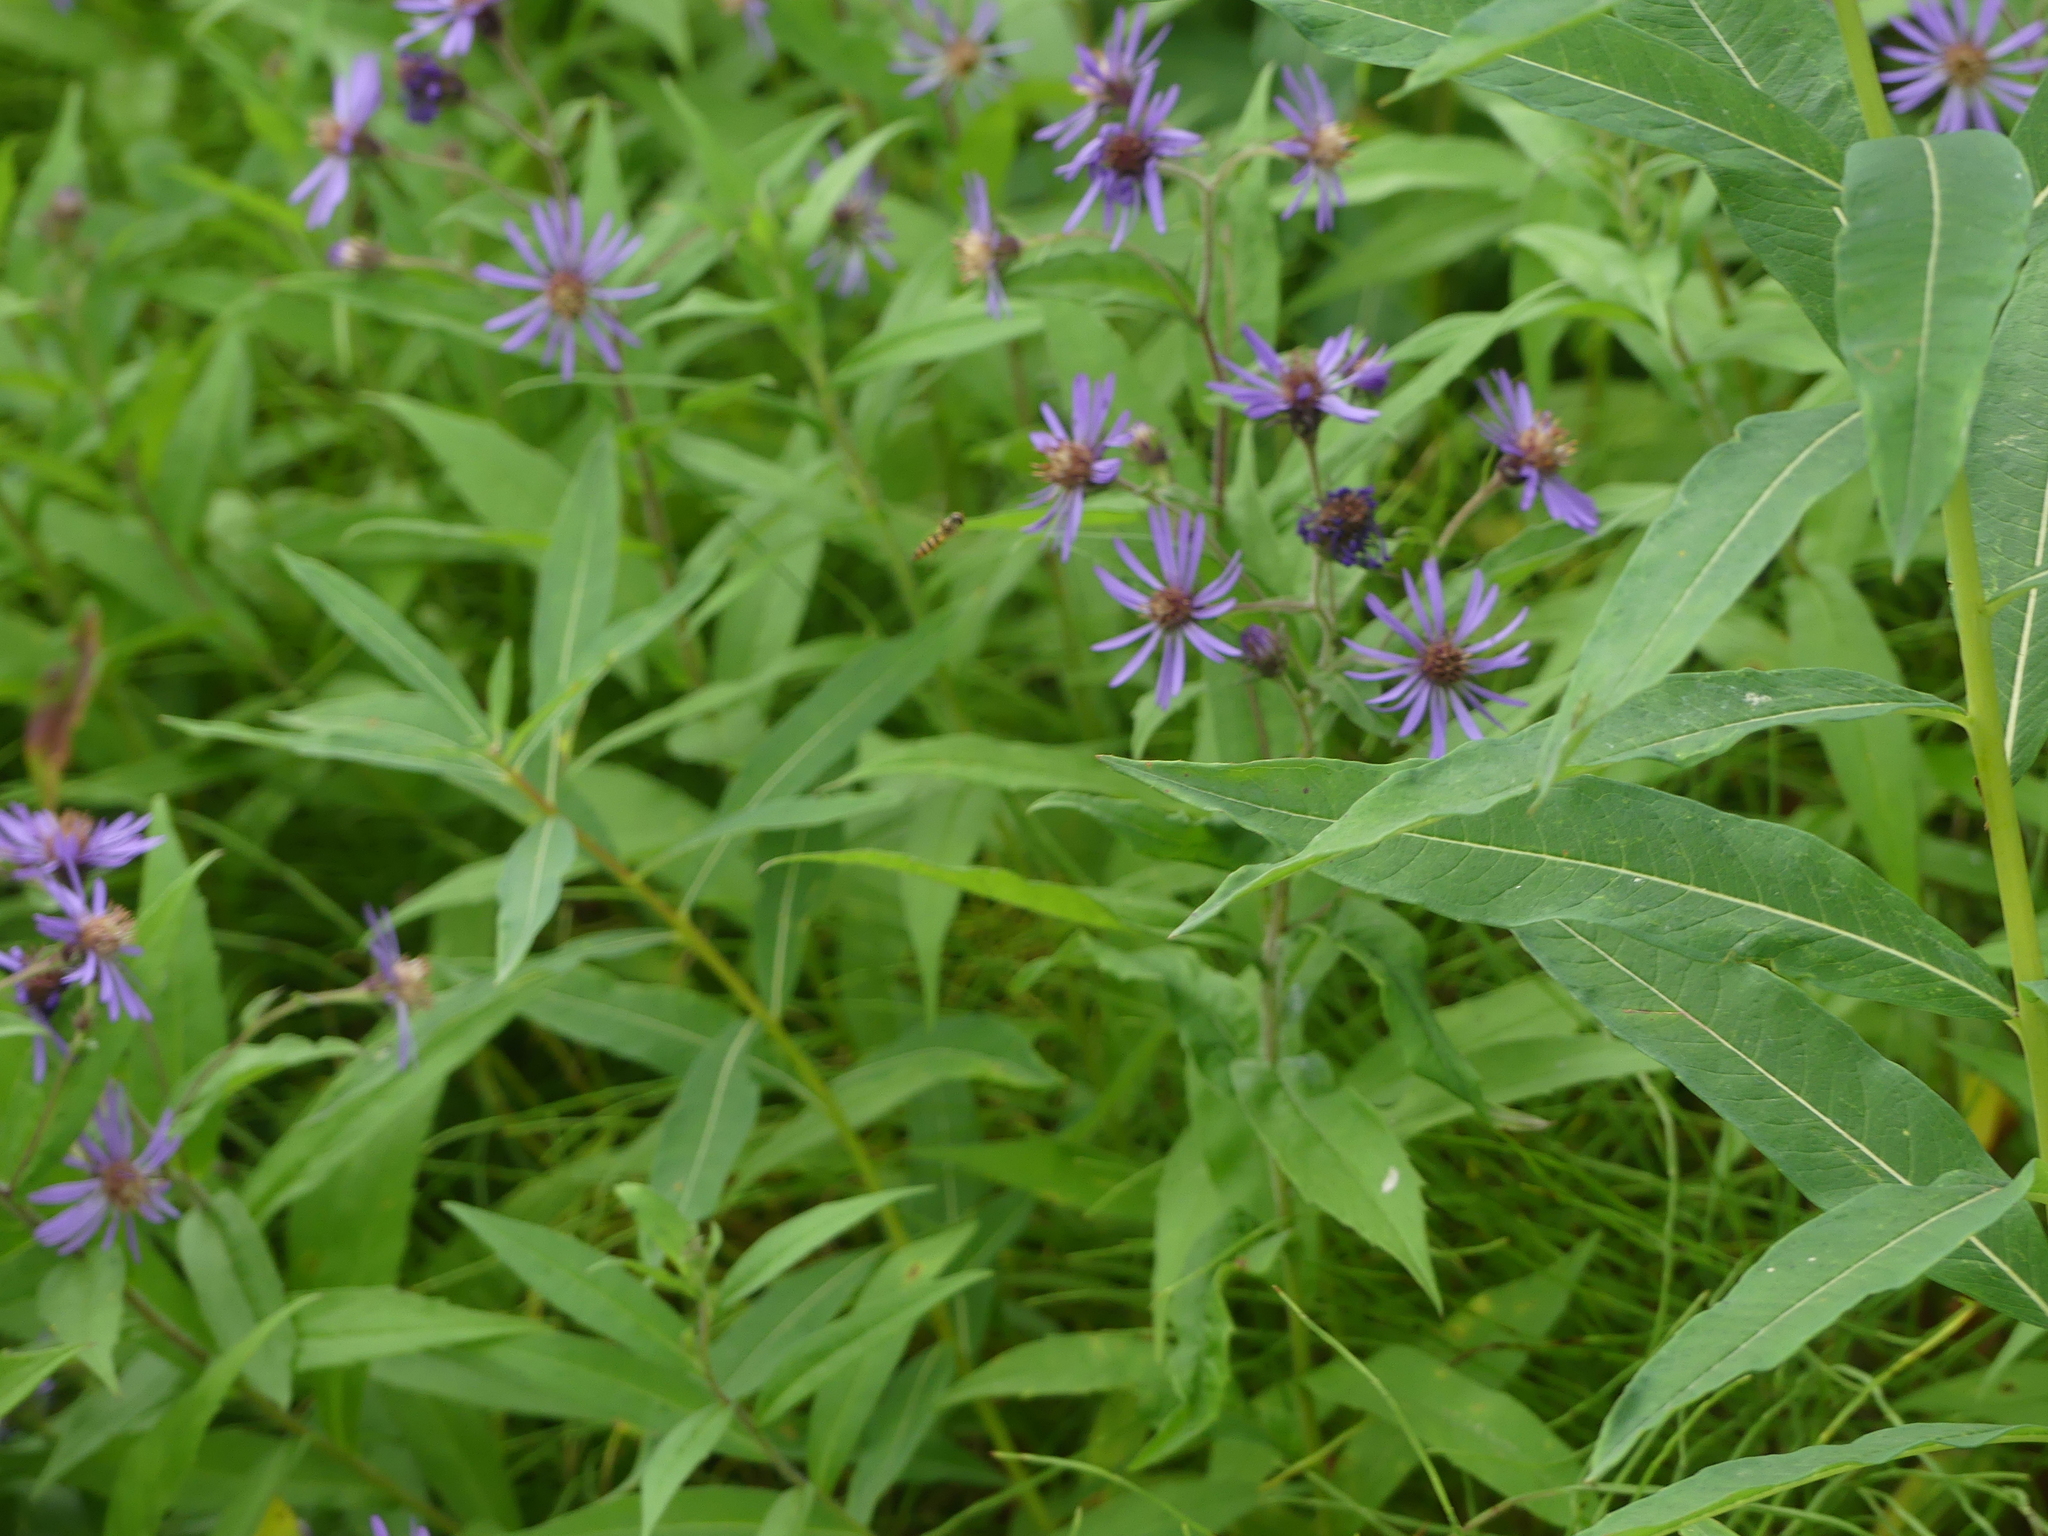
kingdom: Animalia
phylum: Arthropoda
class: Insecta
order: Diptera
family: Syrphidae
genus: Meliscaeva
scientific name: Meliscaeva cinctella
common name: American thintail fly
